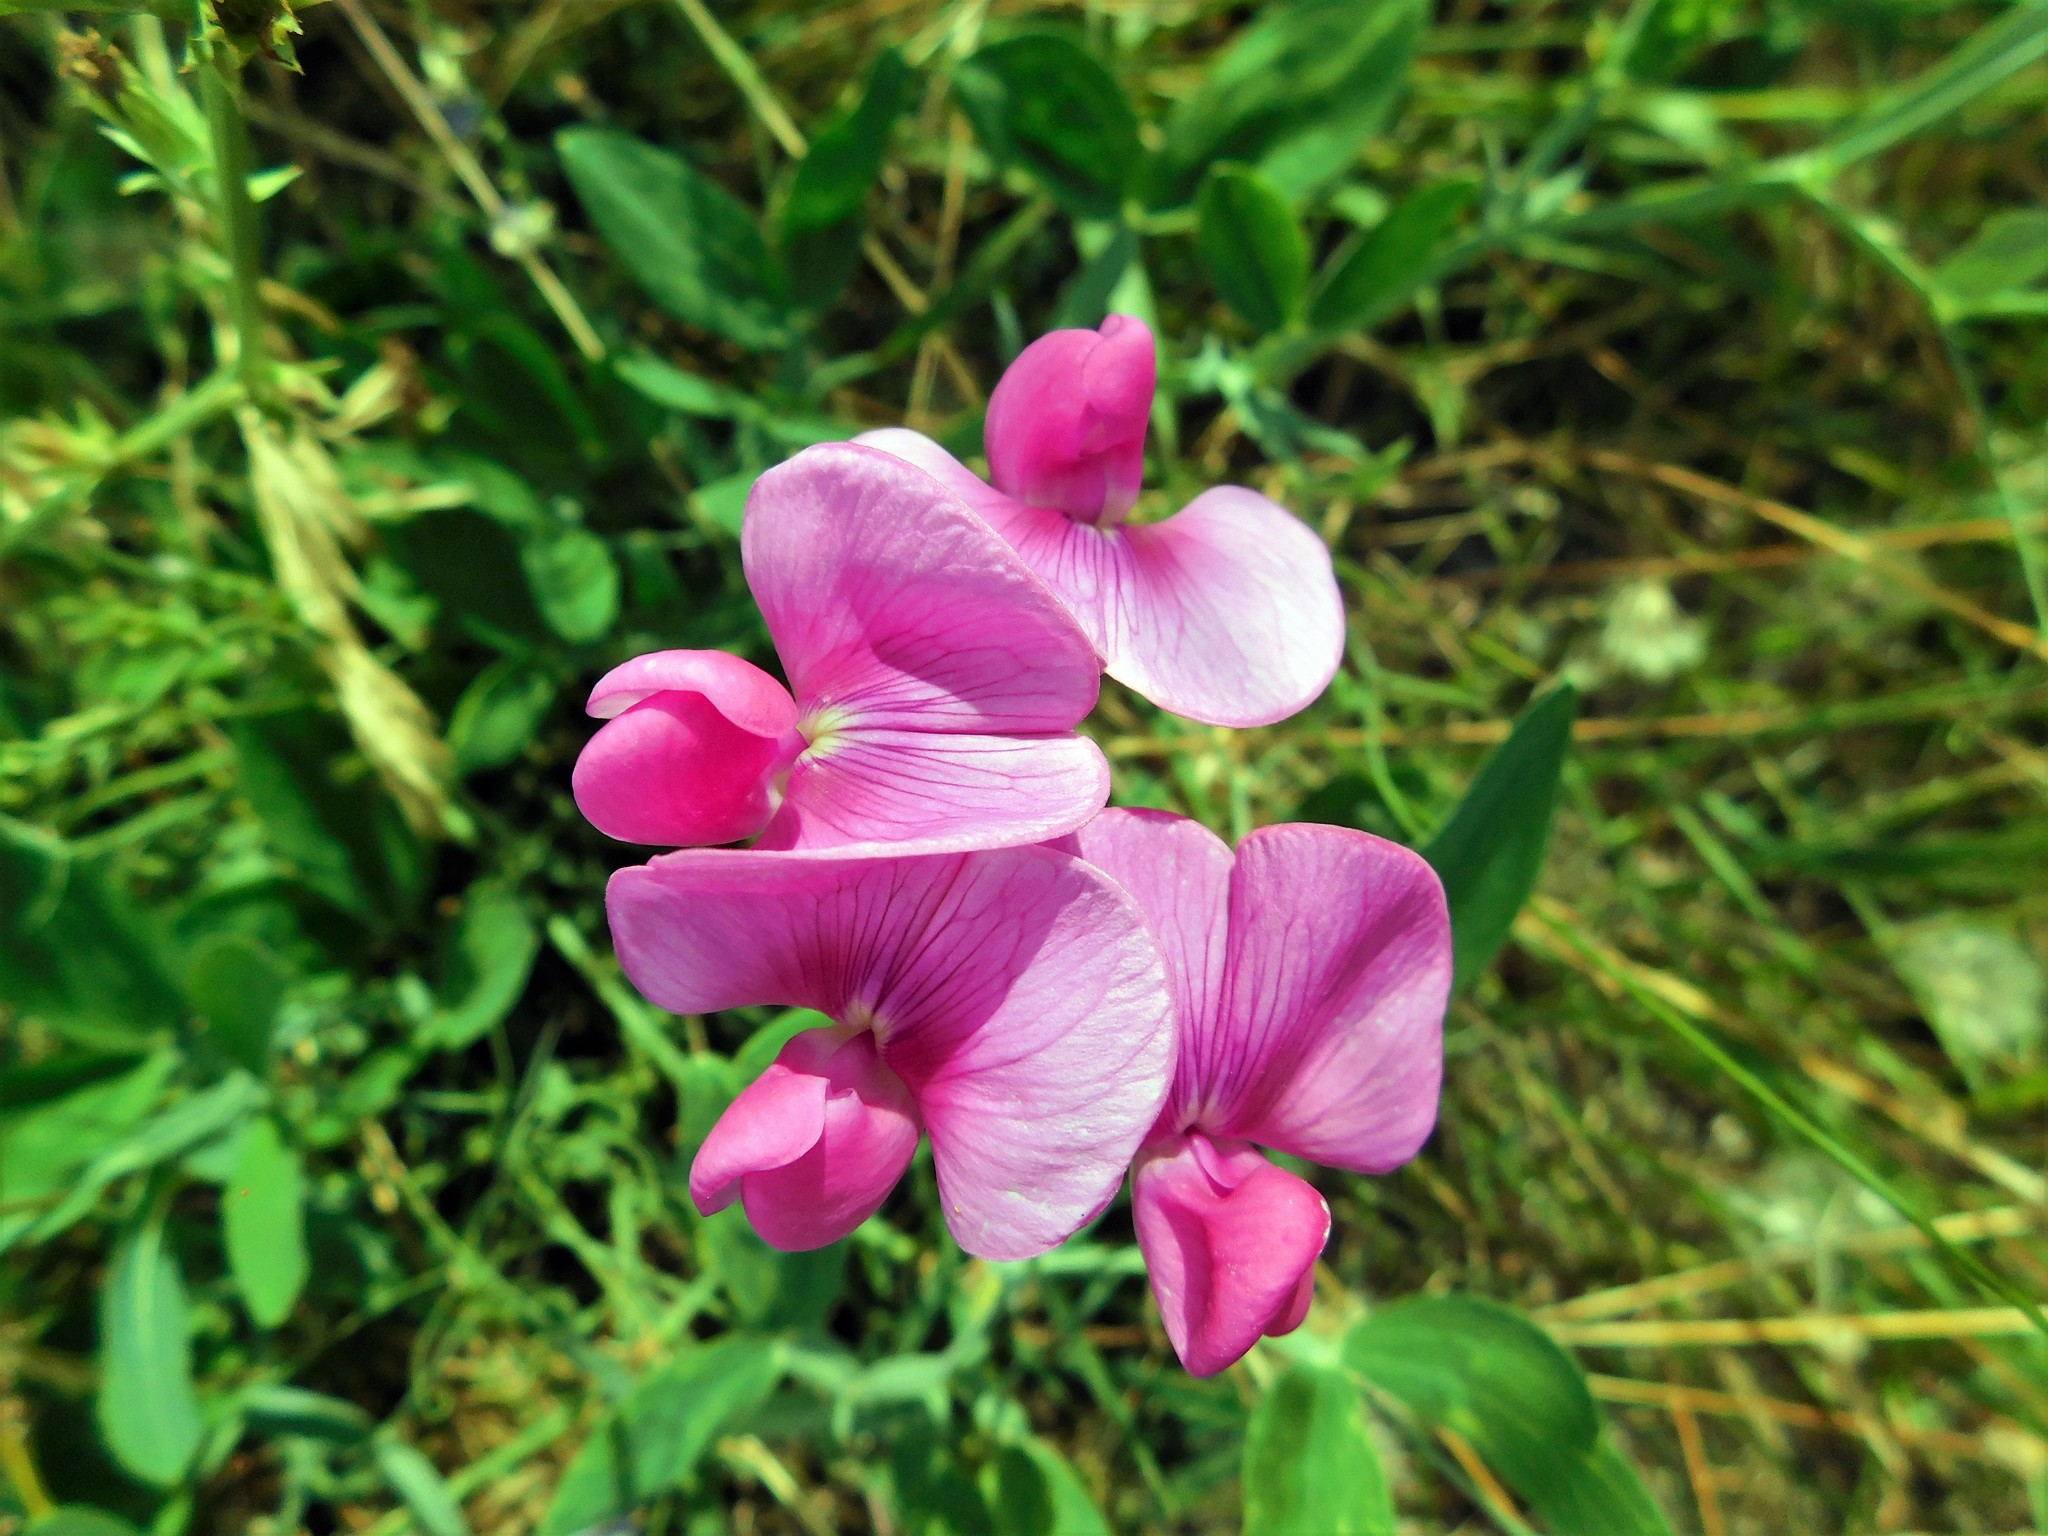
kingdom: Plantae
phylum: Tracheophyta
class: Magnoliopsida
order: Fabales
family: Fabaceae
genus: Lathyrus
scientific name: Lathyrus latifolius
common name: Perennial pea
